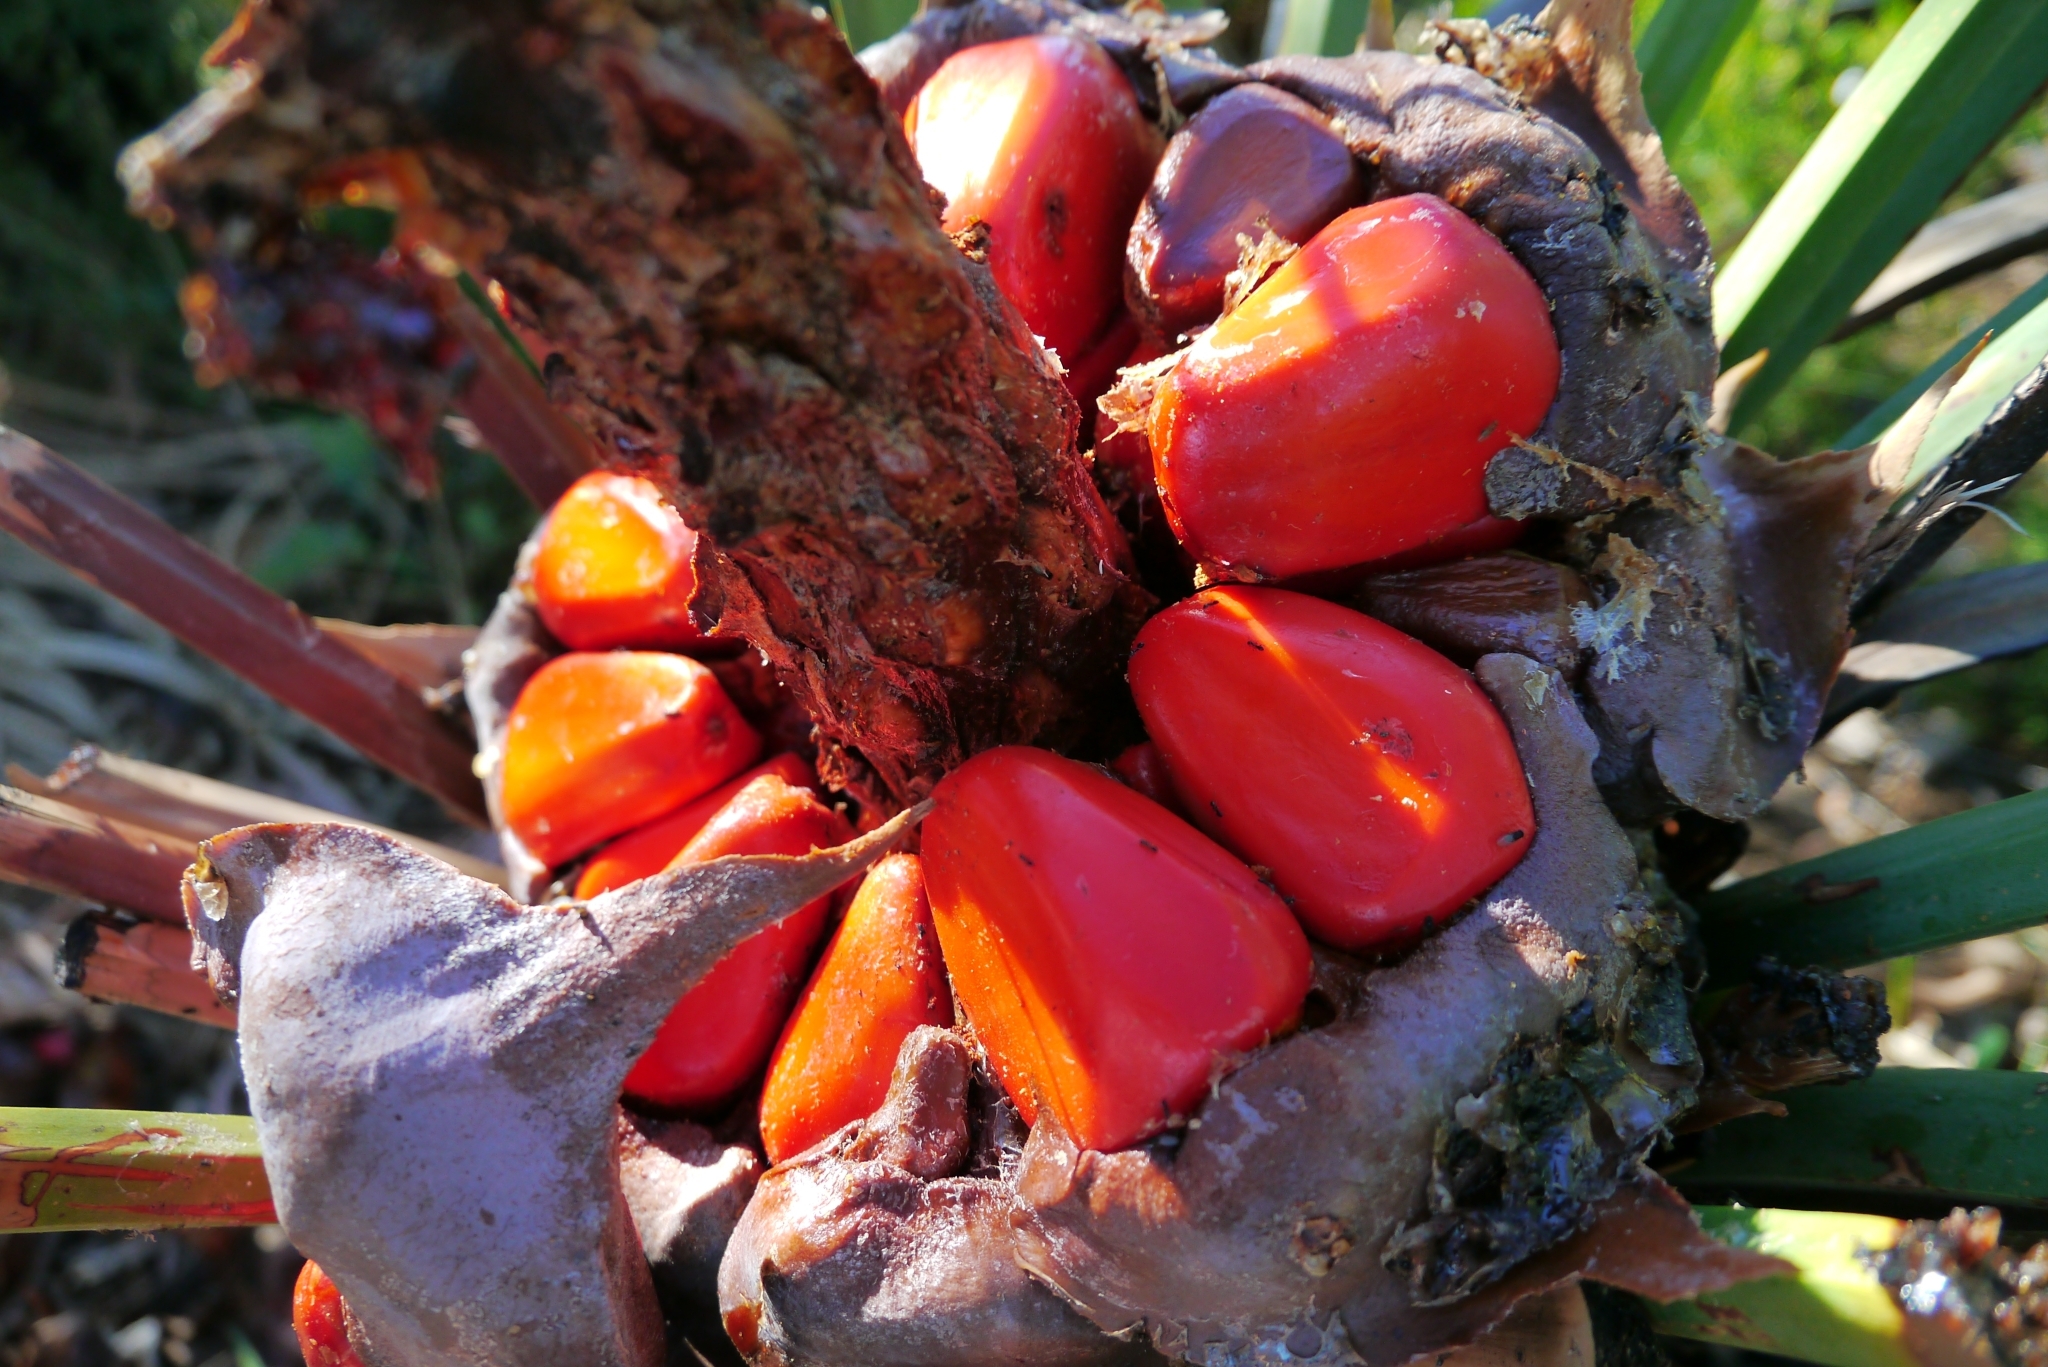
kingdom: Plantae
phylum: Tracheophyta
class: Cycadopsida
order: Cycadales
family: Zamiaceae
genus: Macrozamia
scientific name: Macrozamia riedlei
